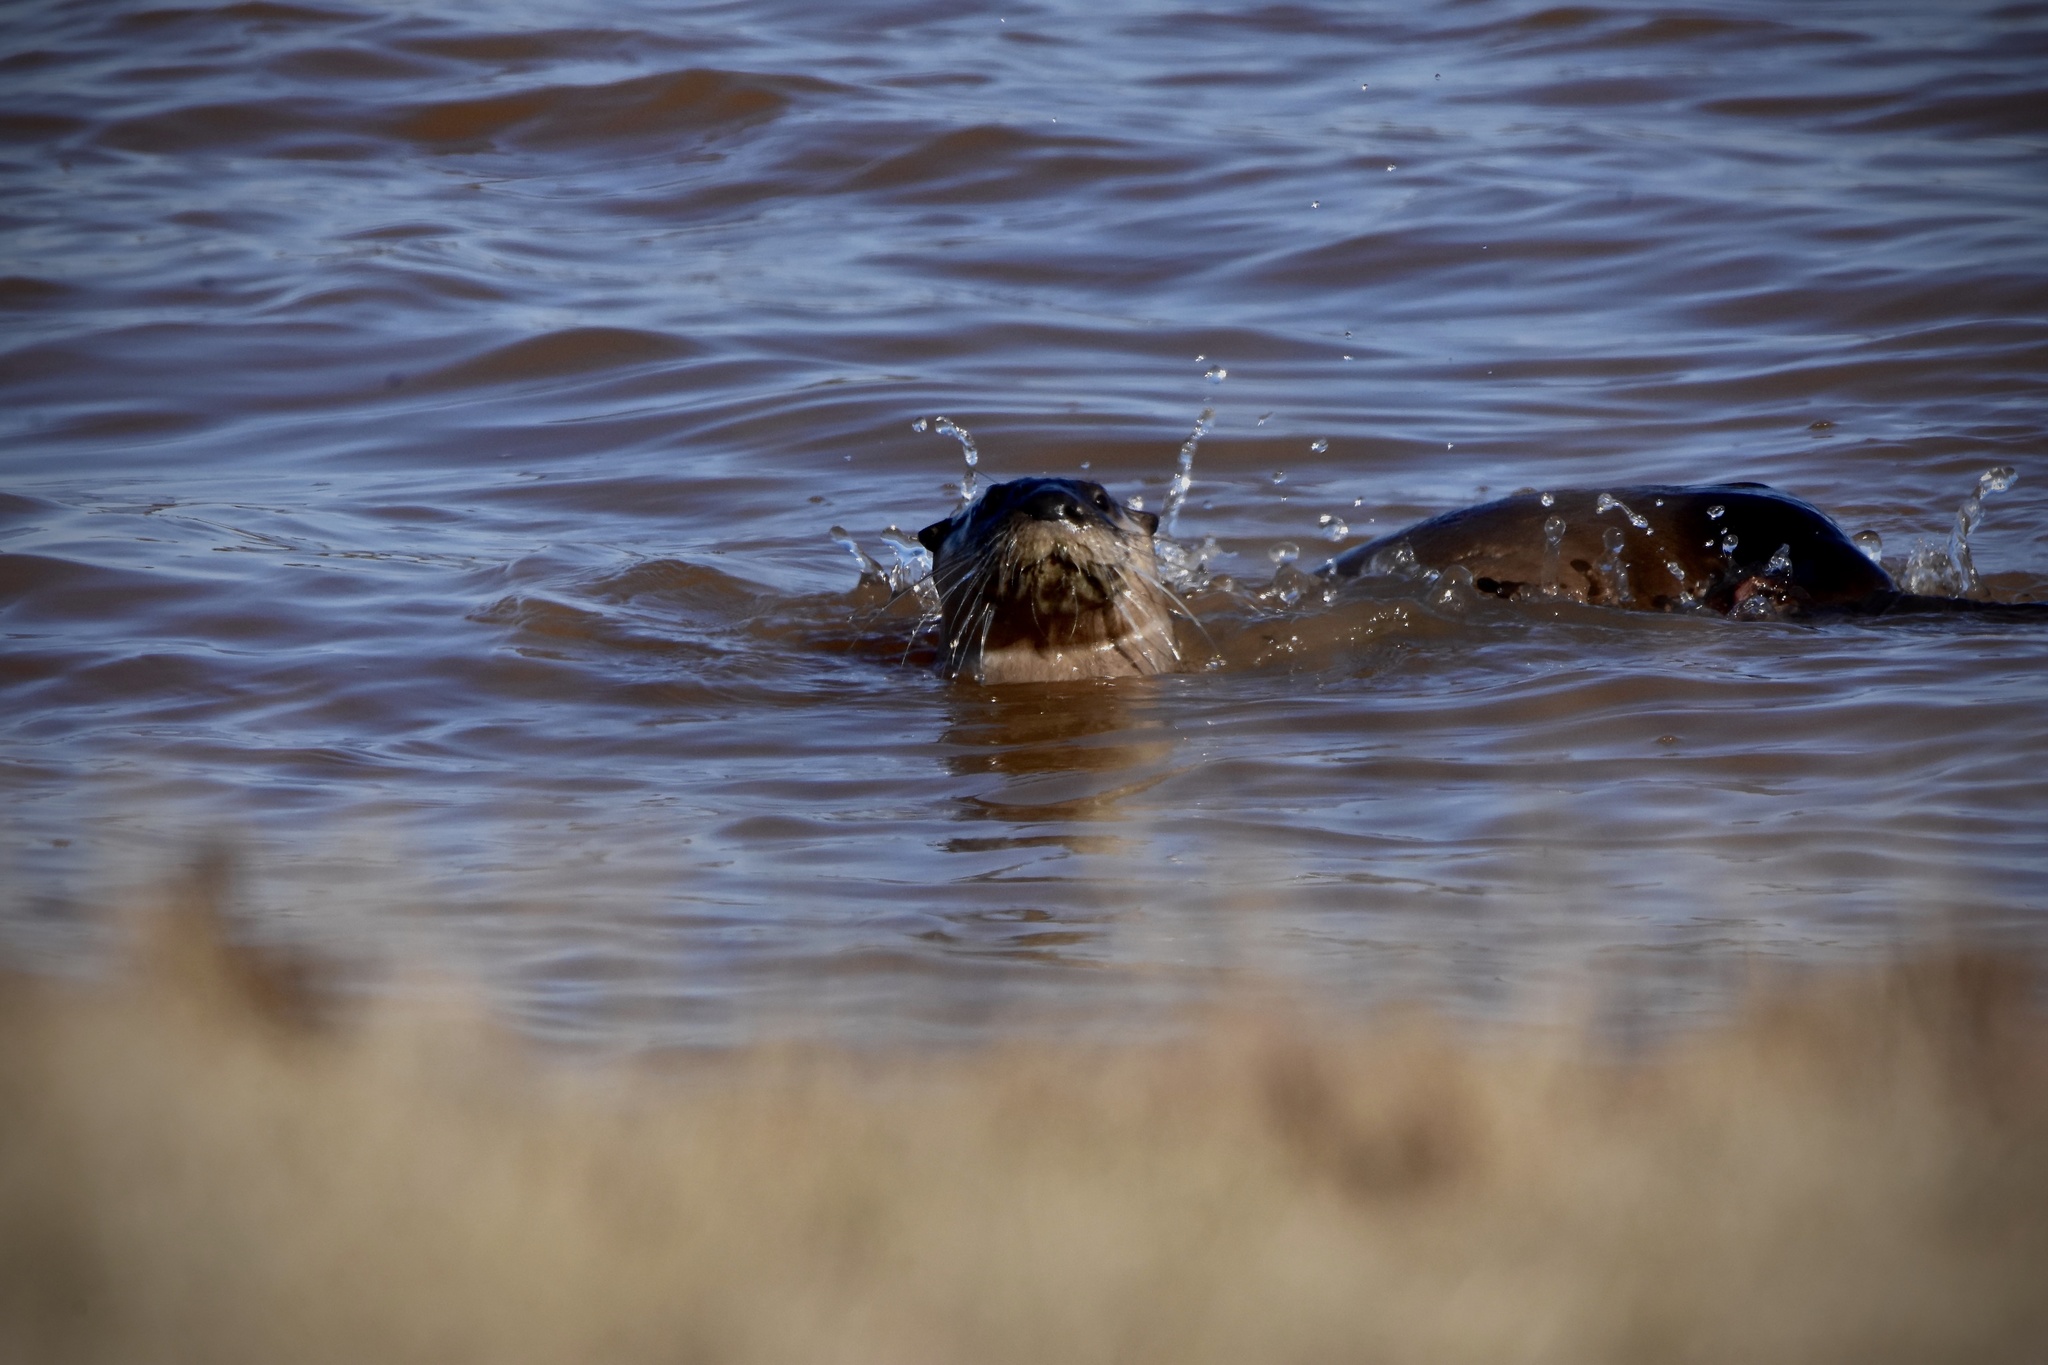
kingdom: Animalia
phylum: Chordata
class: Mammalia
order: Carnivora
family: Mustelidae
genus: Lontra
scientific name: Lontra canadensis
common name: North american river otter
